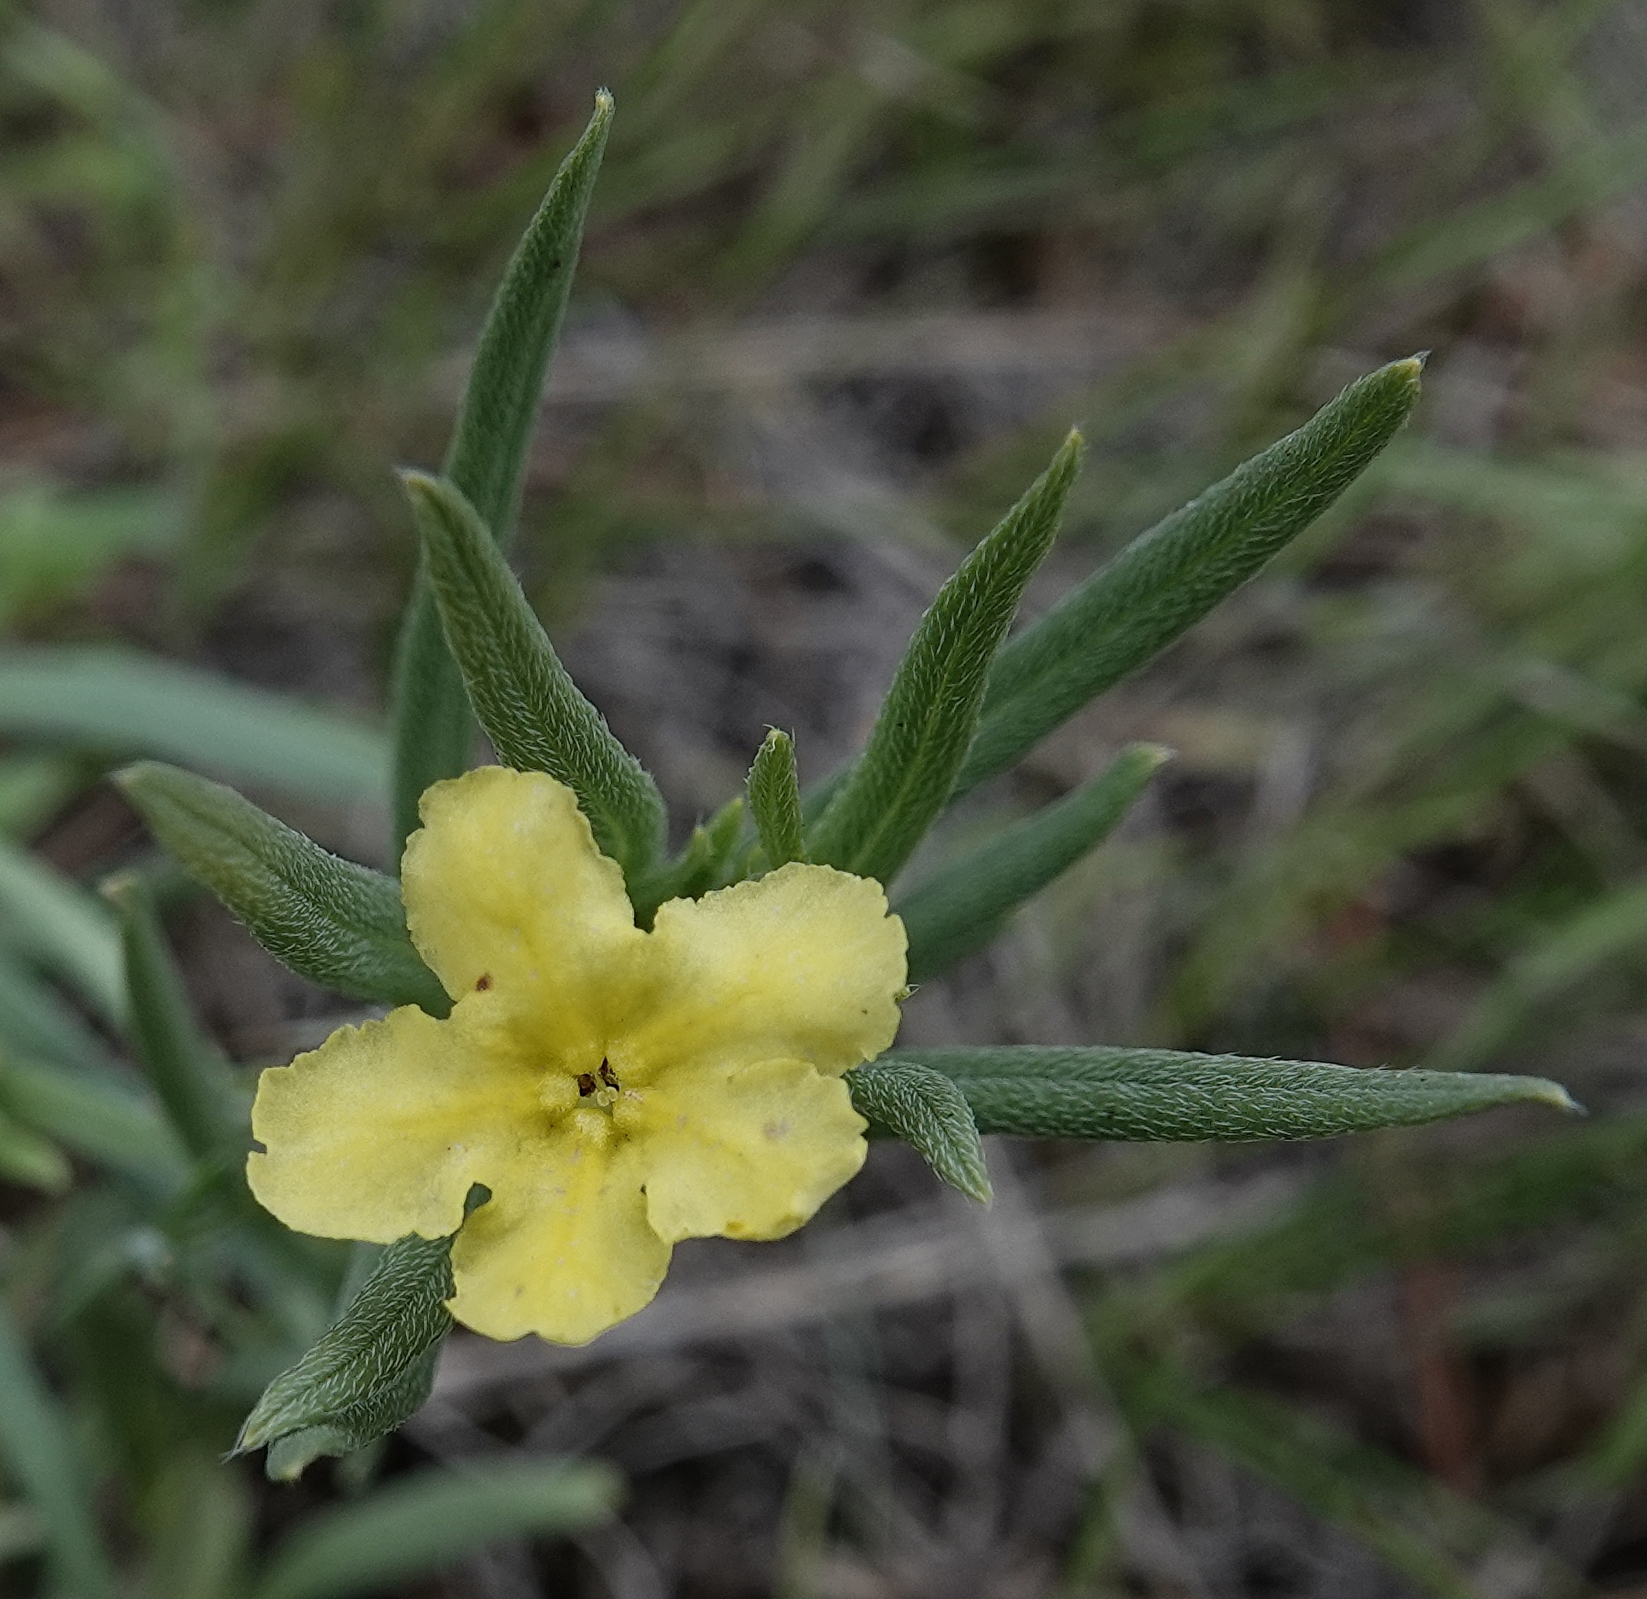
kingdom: Plantae
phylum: Tracheophyta
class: Magnoliopsida
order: Boraginales
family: Boraginaceae
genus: Lithospermum
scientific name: Lithospermum incisum
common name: Fringed gromwell
